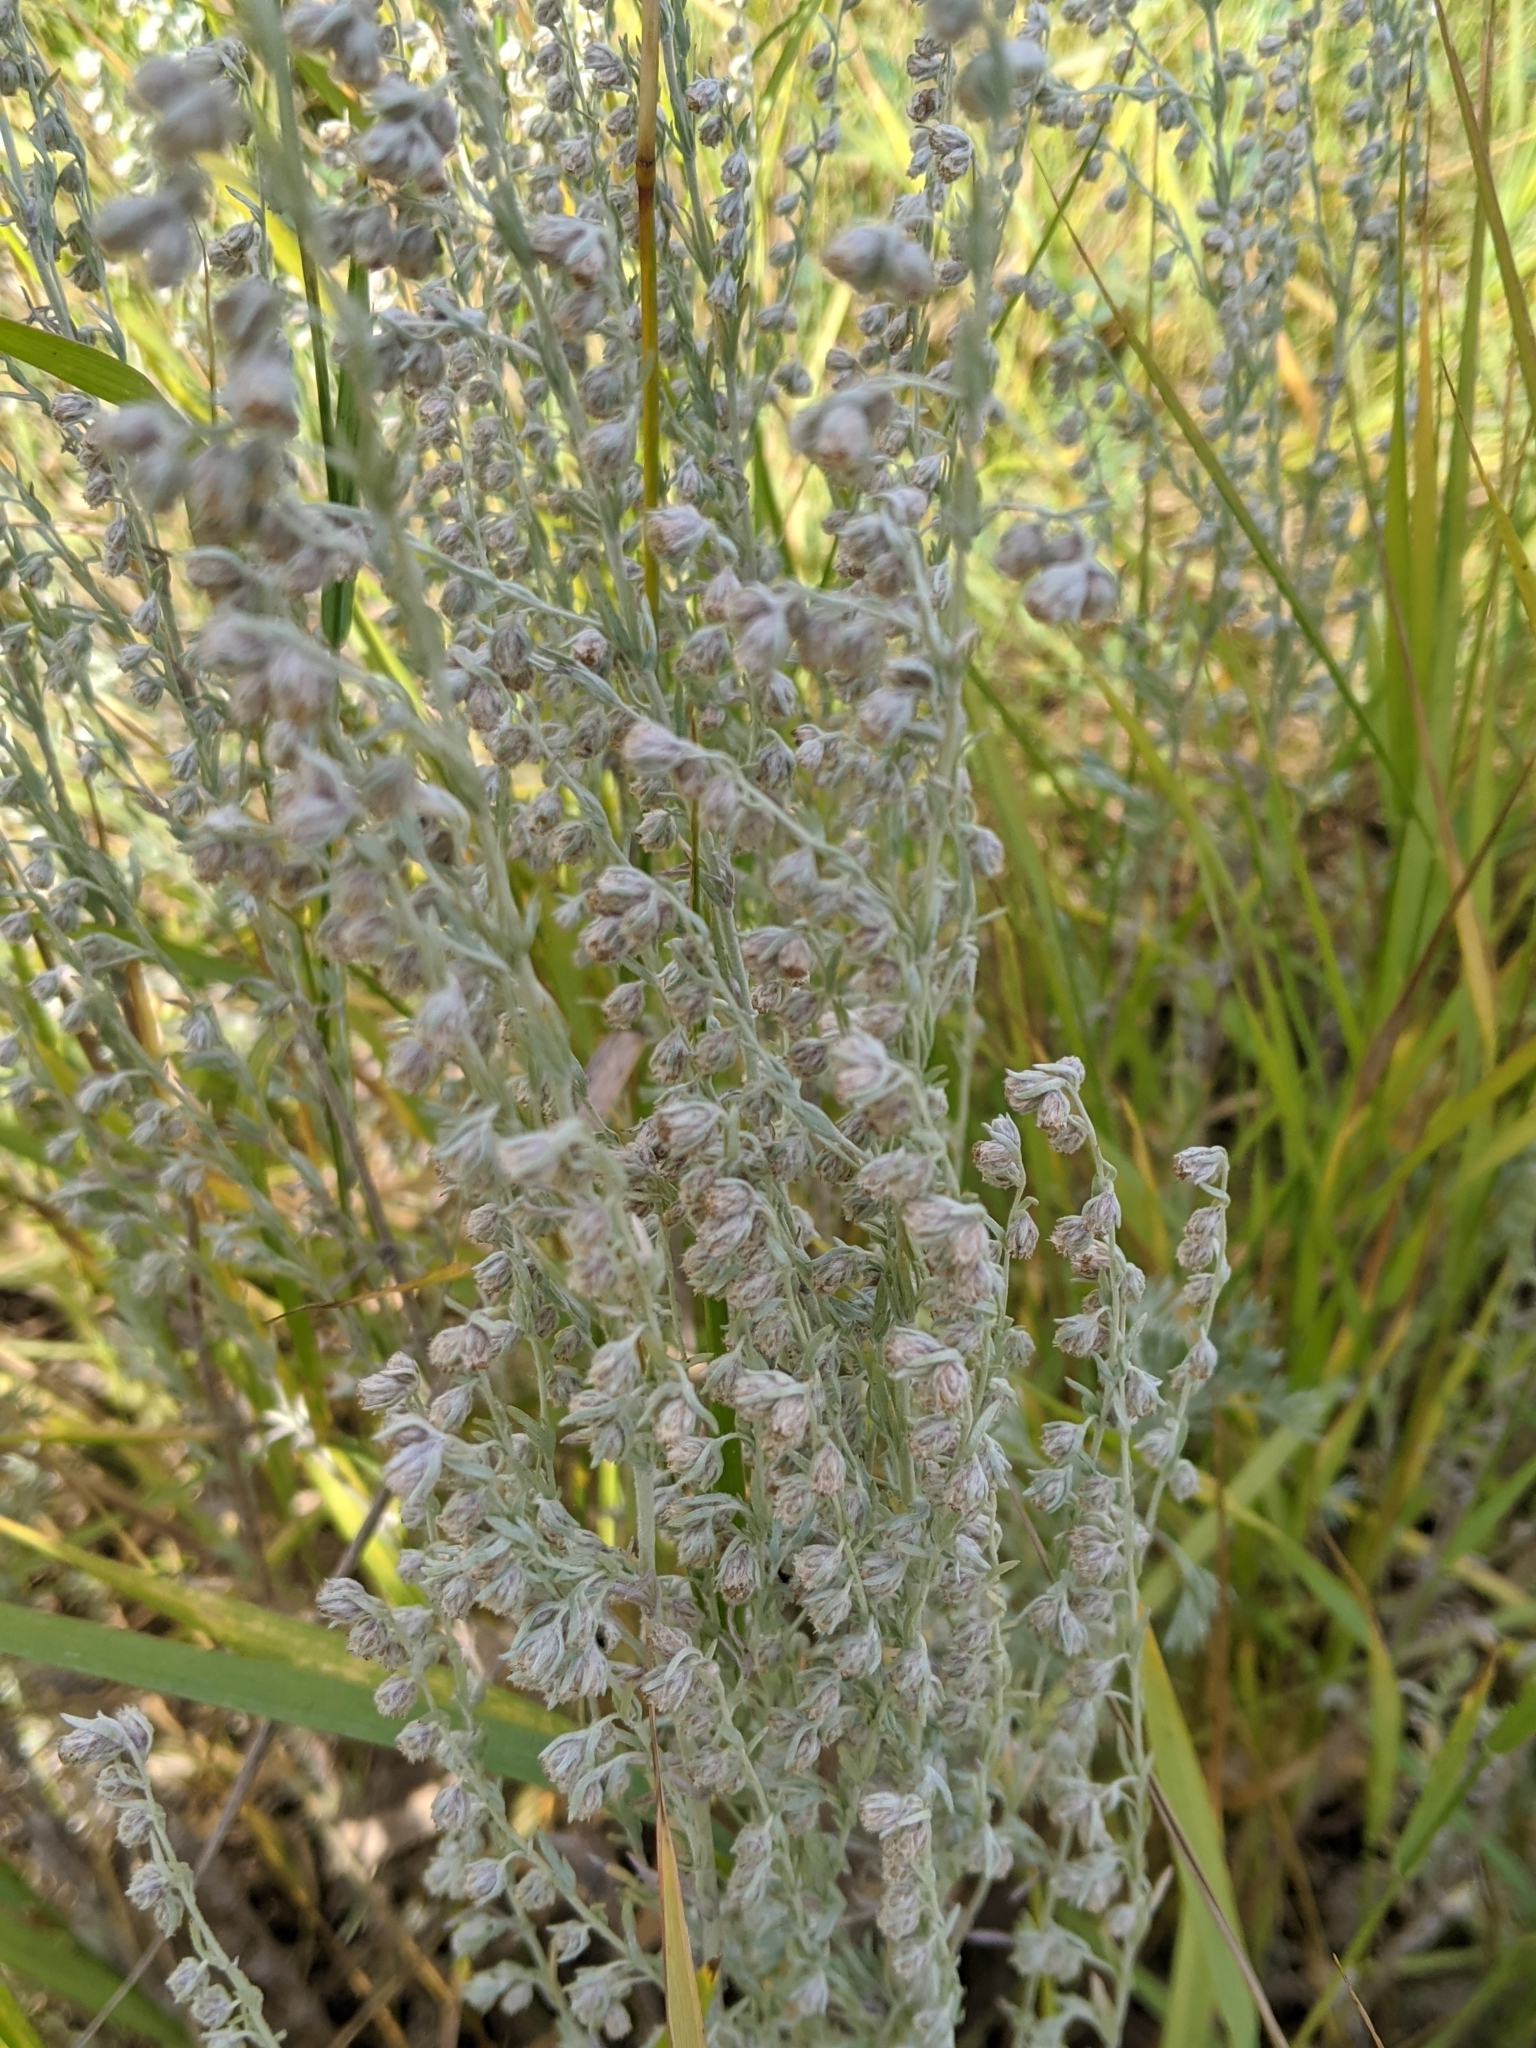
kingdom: Plantae
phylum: Tracheophyta
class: Magnoliopsida
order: Asterales
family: Asteraceae
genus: Artemisia
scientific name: Artemisia frigida
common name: Prairie sagewort
